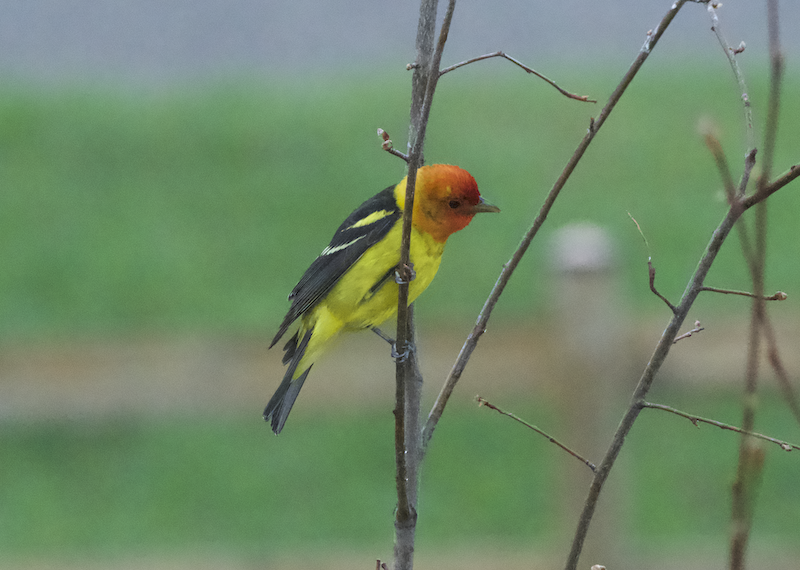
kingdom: Animalia
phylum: Chordata
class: Aves
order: Passeriformes
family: Cardinalidae
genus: Piranga
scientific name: Piranga ludoviciana
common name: Western tanager
